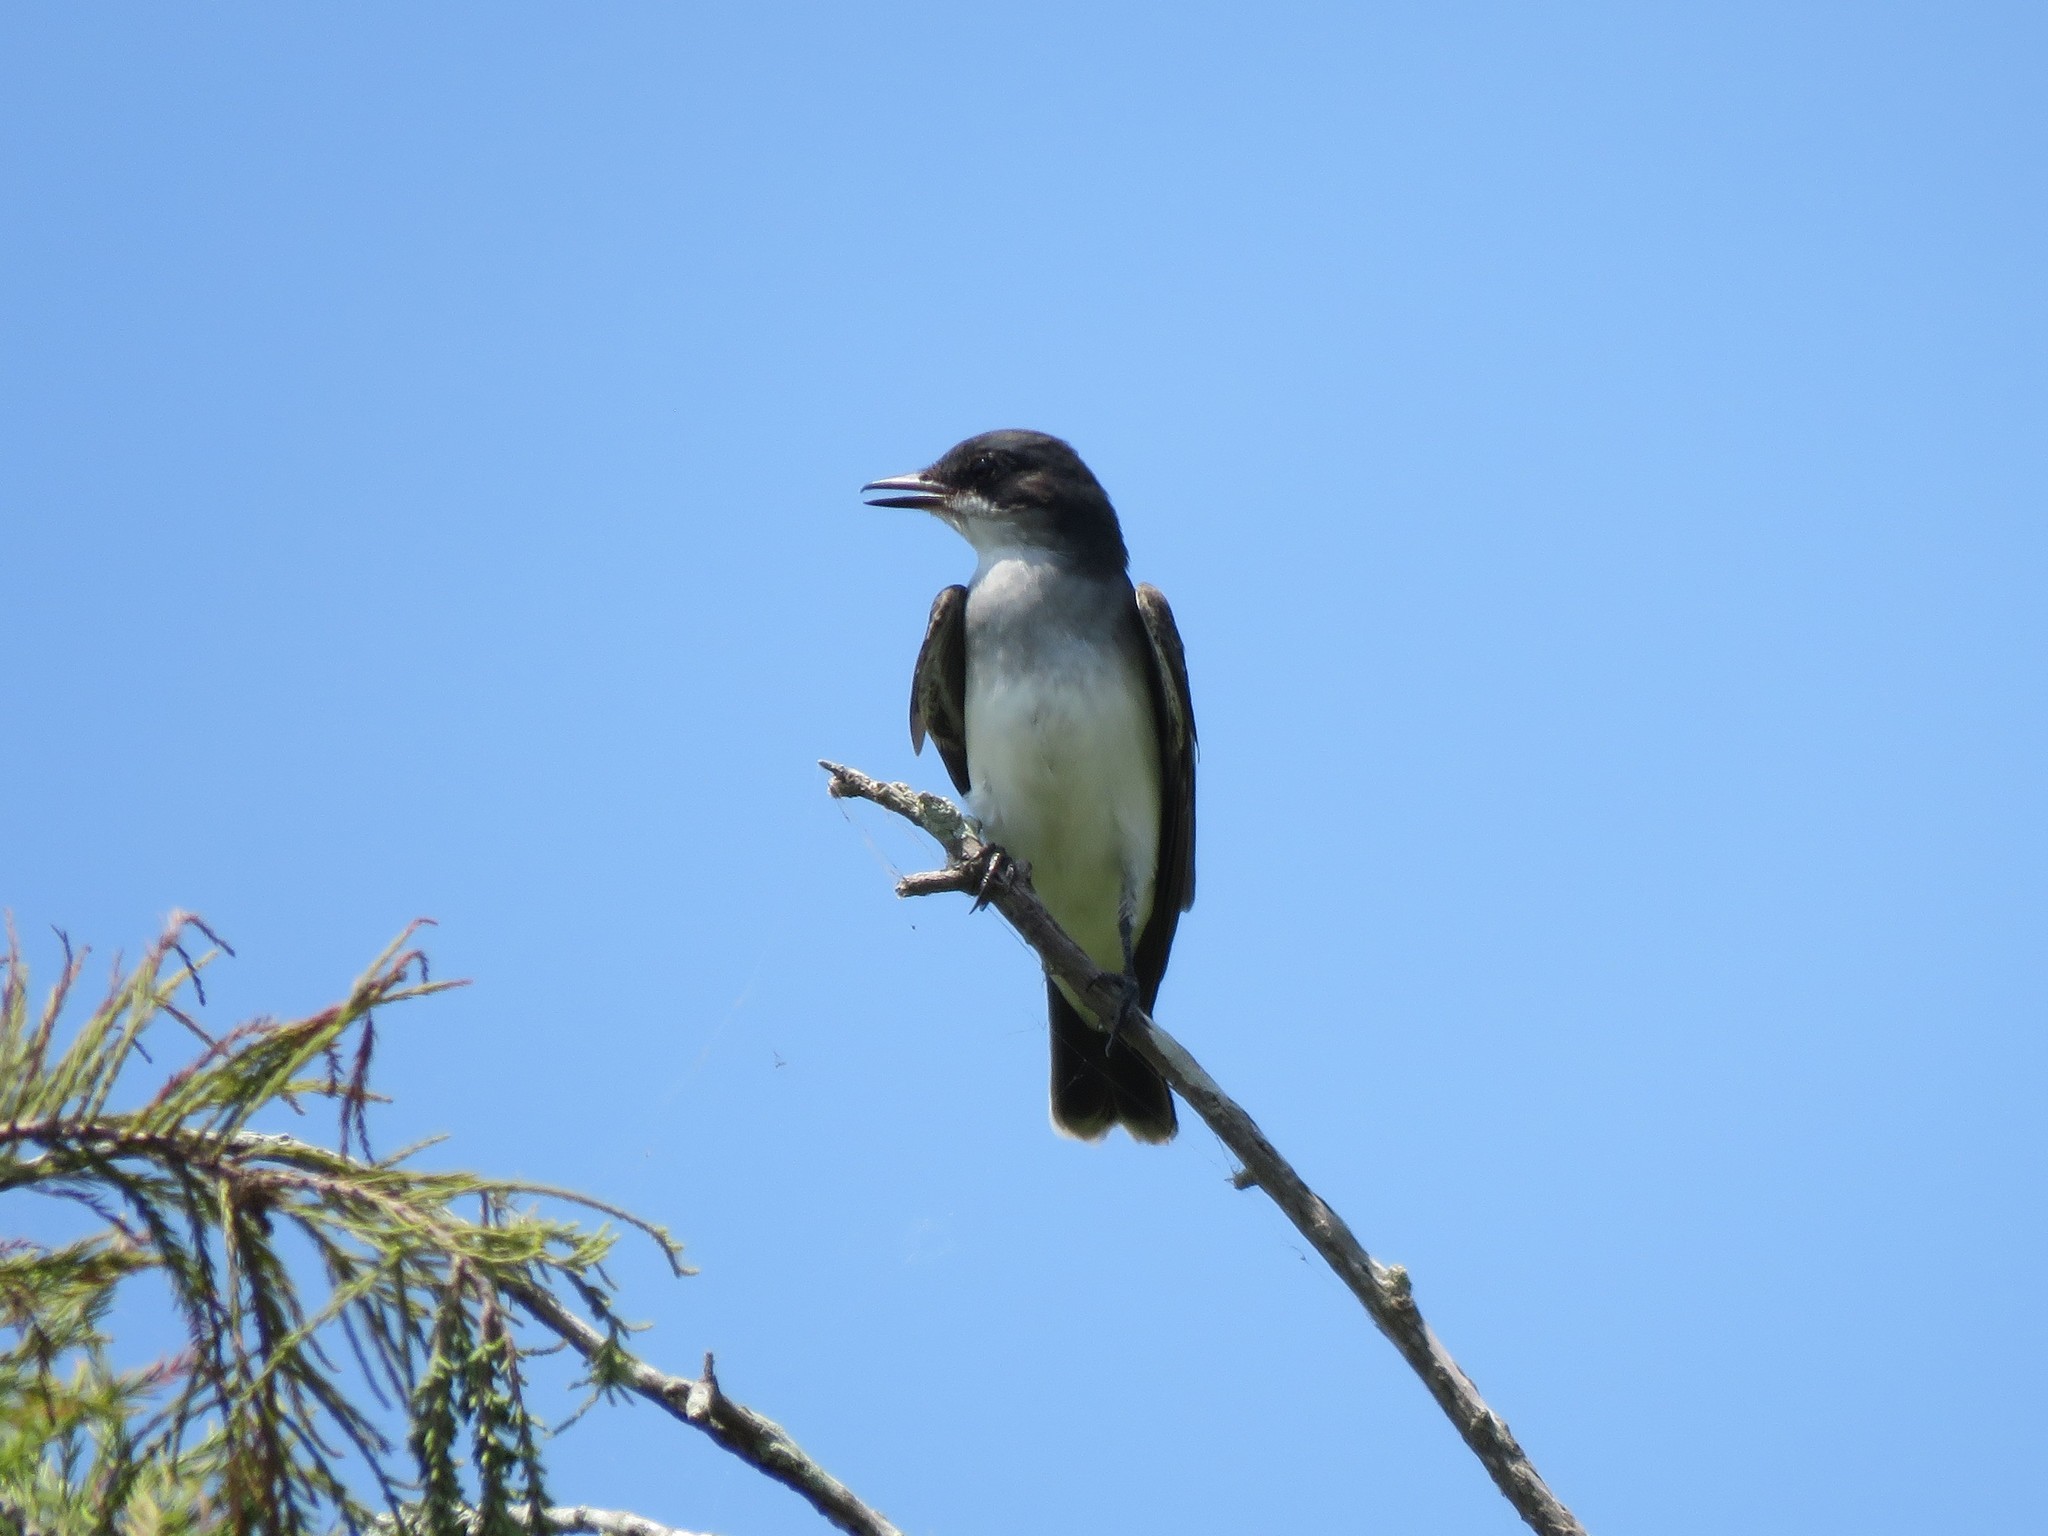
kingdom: Animalia
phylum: Chordata
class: Aves
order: Passeriformes
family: Tyrannidae
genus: Tyrannus
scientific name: Tyrannus tyrannus
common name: Eastern kingbird
